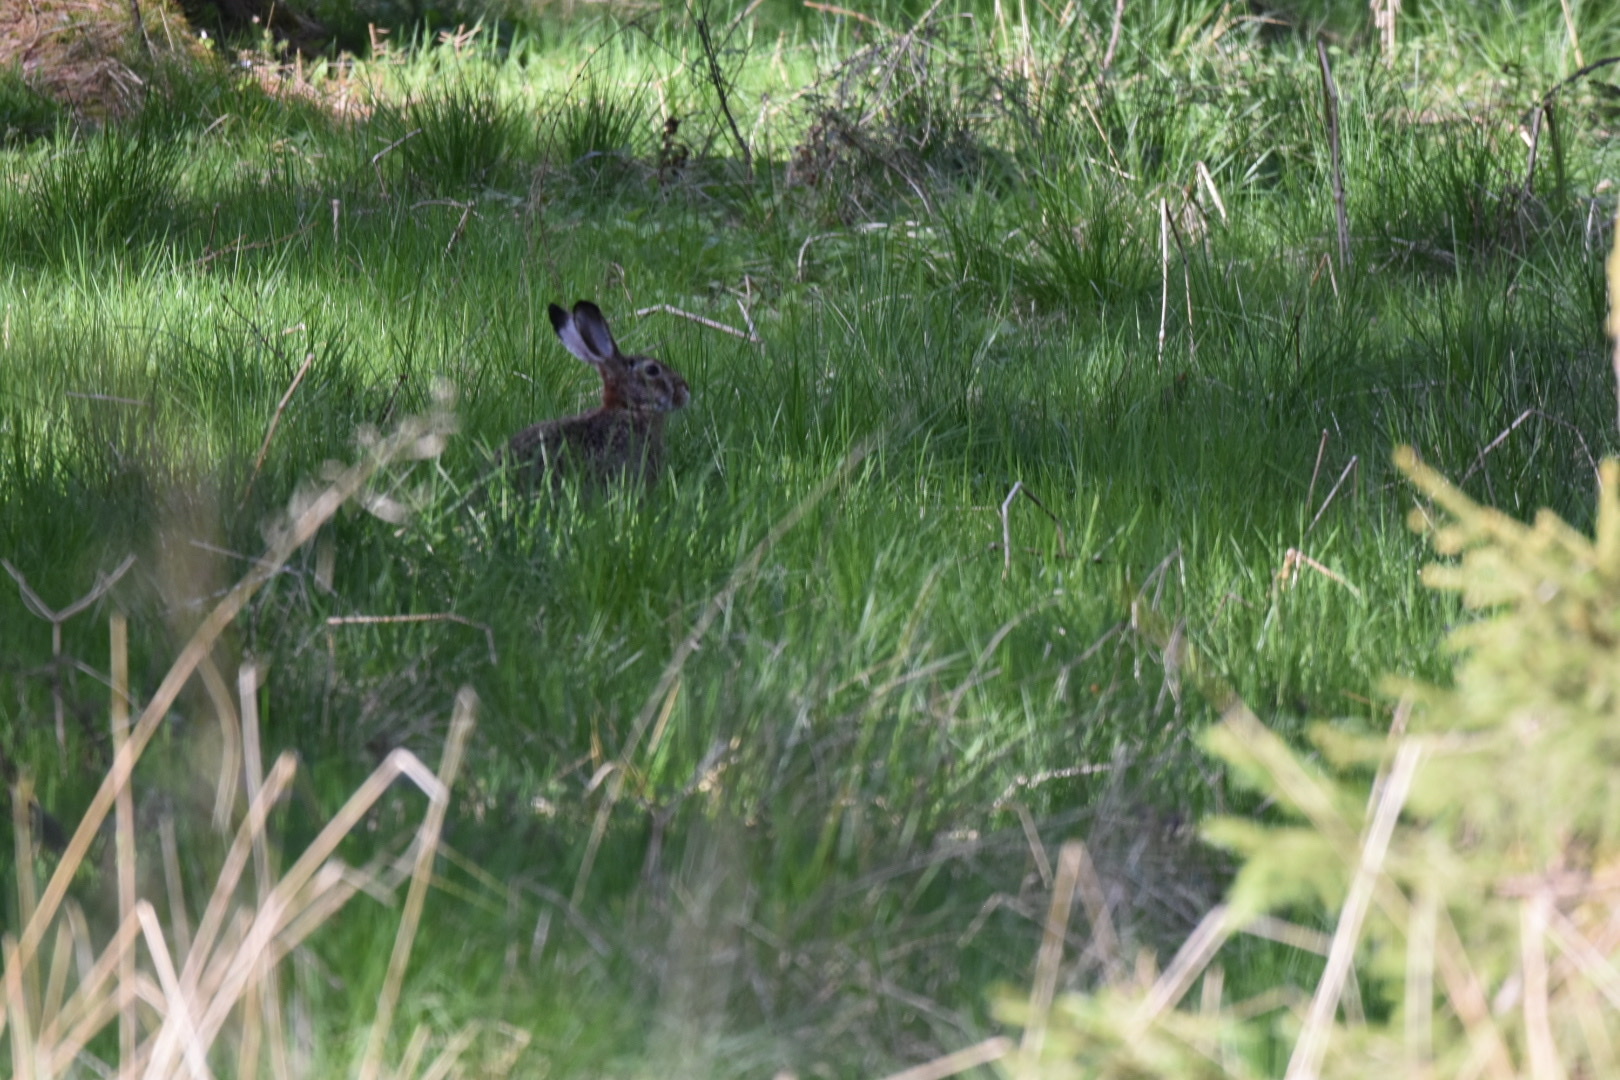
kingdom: Animalia
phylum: Chordata
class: Mammalia
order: Lagomorpha
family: Leporidae
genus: Lepus
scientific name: Lepus europaeus
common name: European hare
